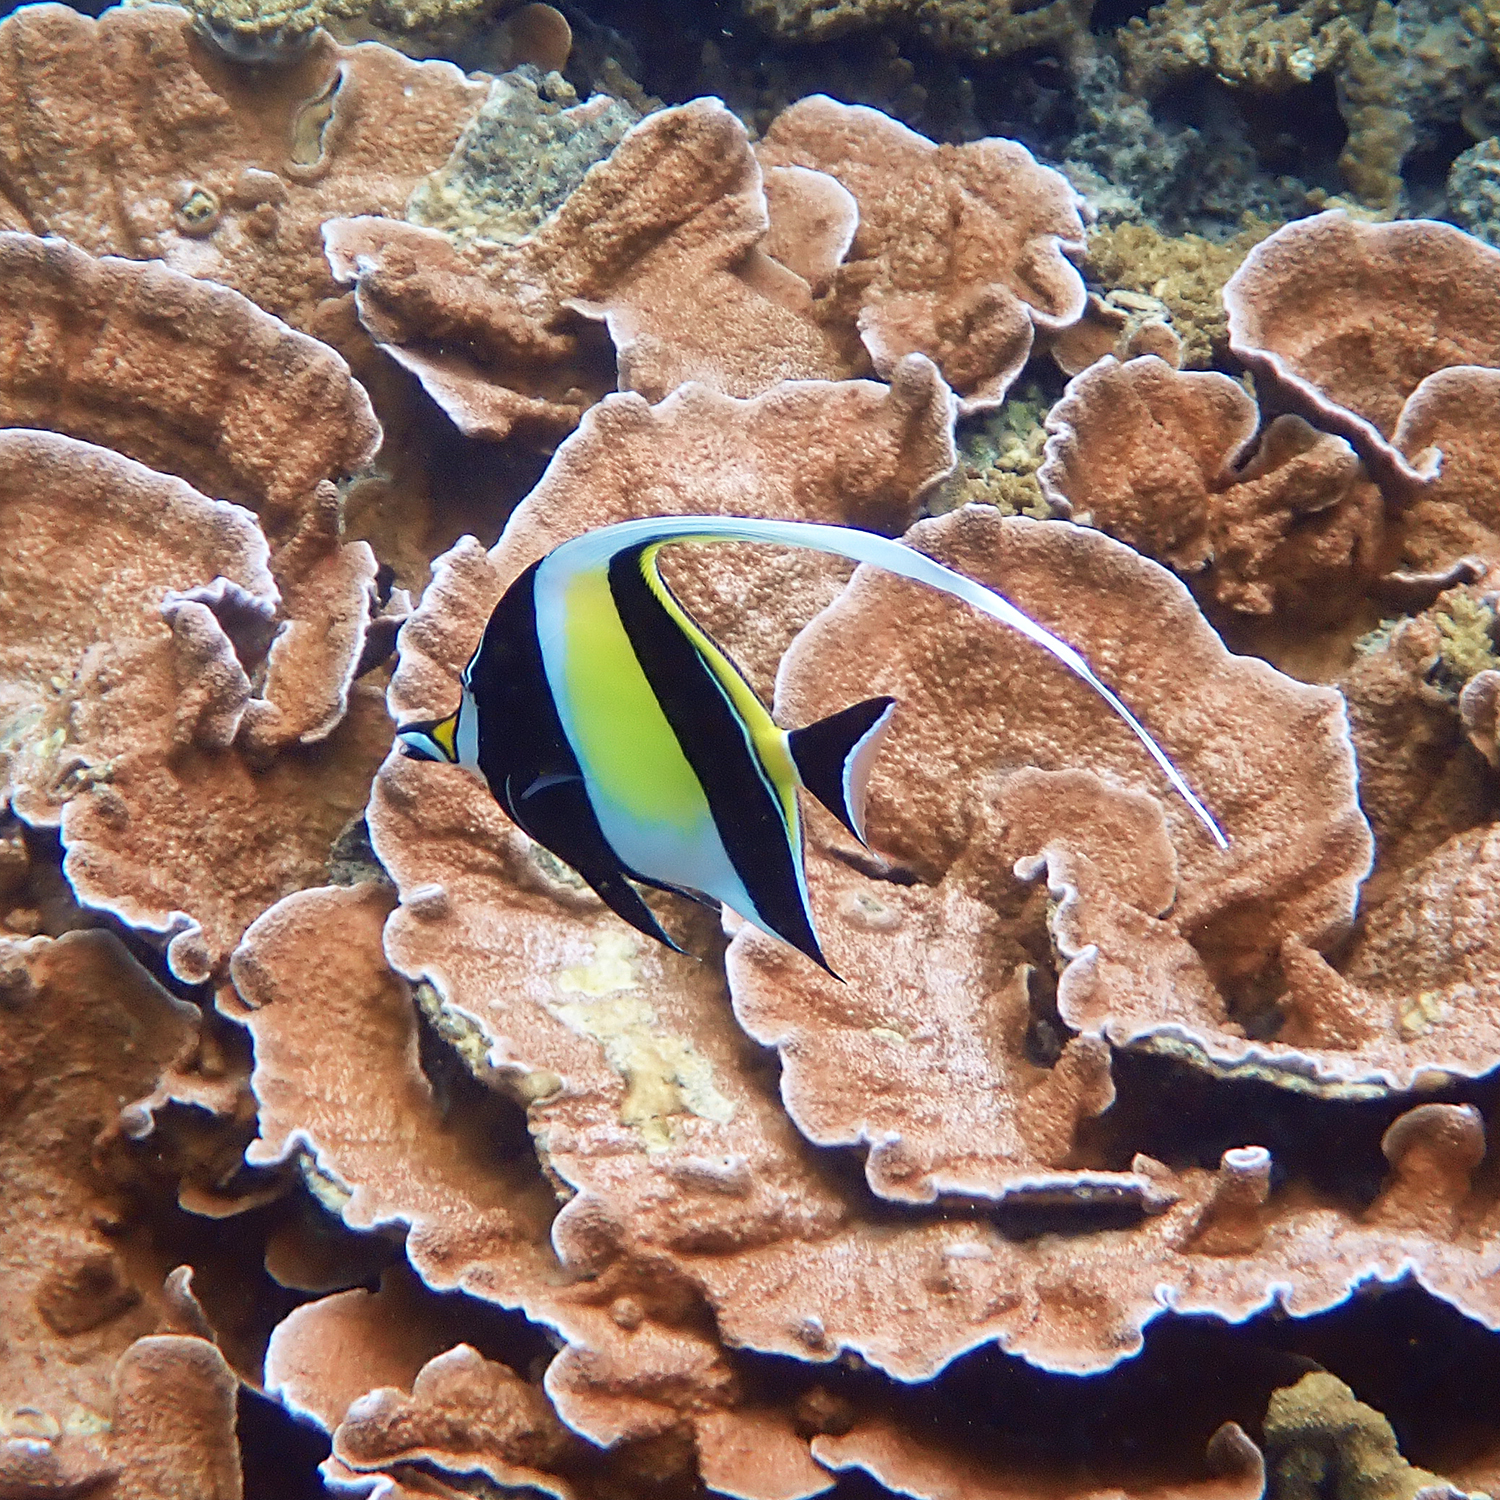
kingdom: Animalia
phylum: Chordata
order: Perciformes
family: Zanclidae
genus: Zanclus
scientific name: Zanclus cornutus
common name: Moorish idol
